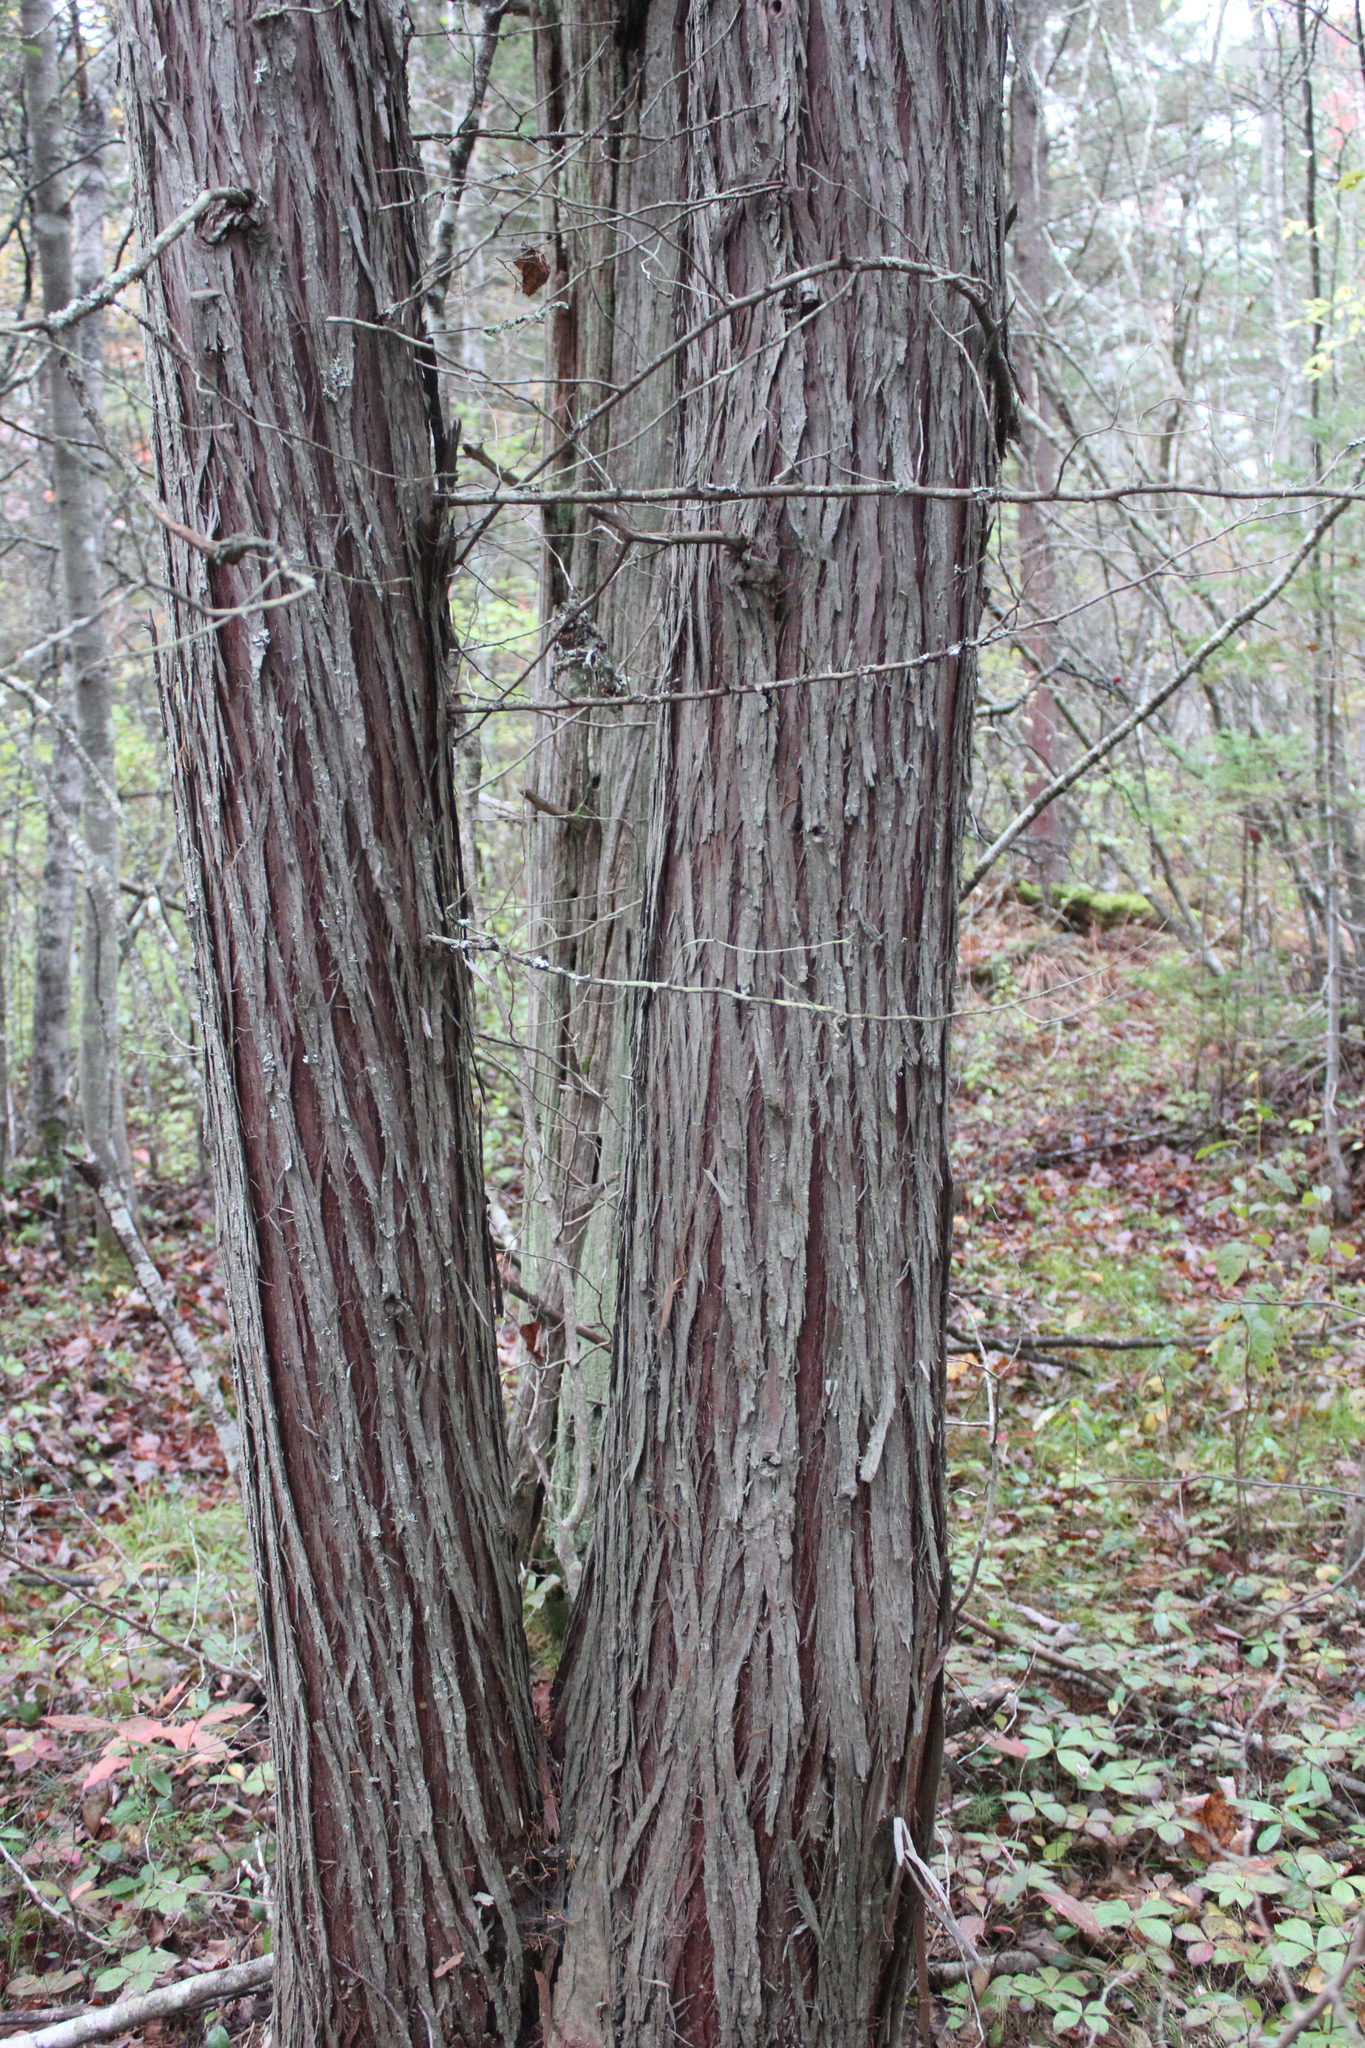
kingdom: Plantae
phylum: Tracheophyta
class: Pinopsida
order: Pinales
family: Cupressaceae
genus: Chamaecyparis
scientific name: Chamaecyparis thyoides
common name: Atlantic white cedar
